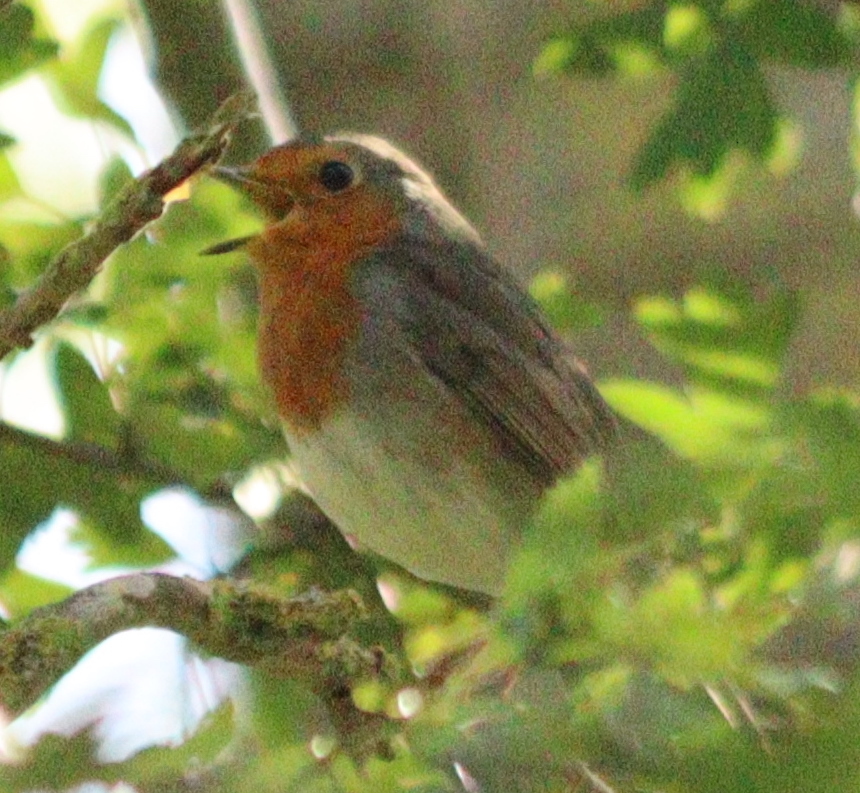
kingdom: Animalia
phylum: Chordata
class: Aves
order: Passeriformes
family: Muscicapidae
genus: Erithacus
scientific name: Erithacus rubecula
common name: European robin
